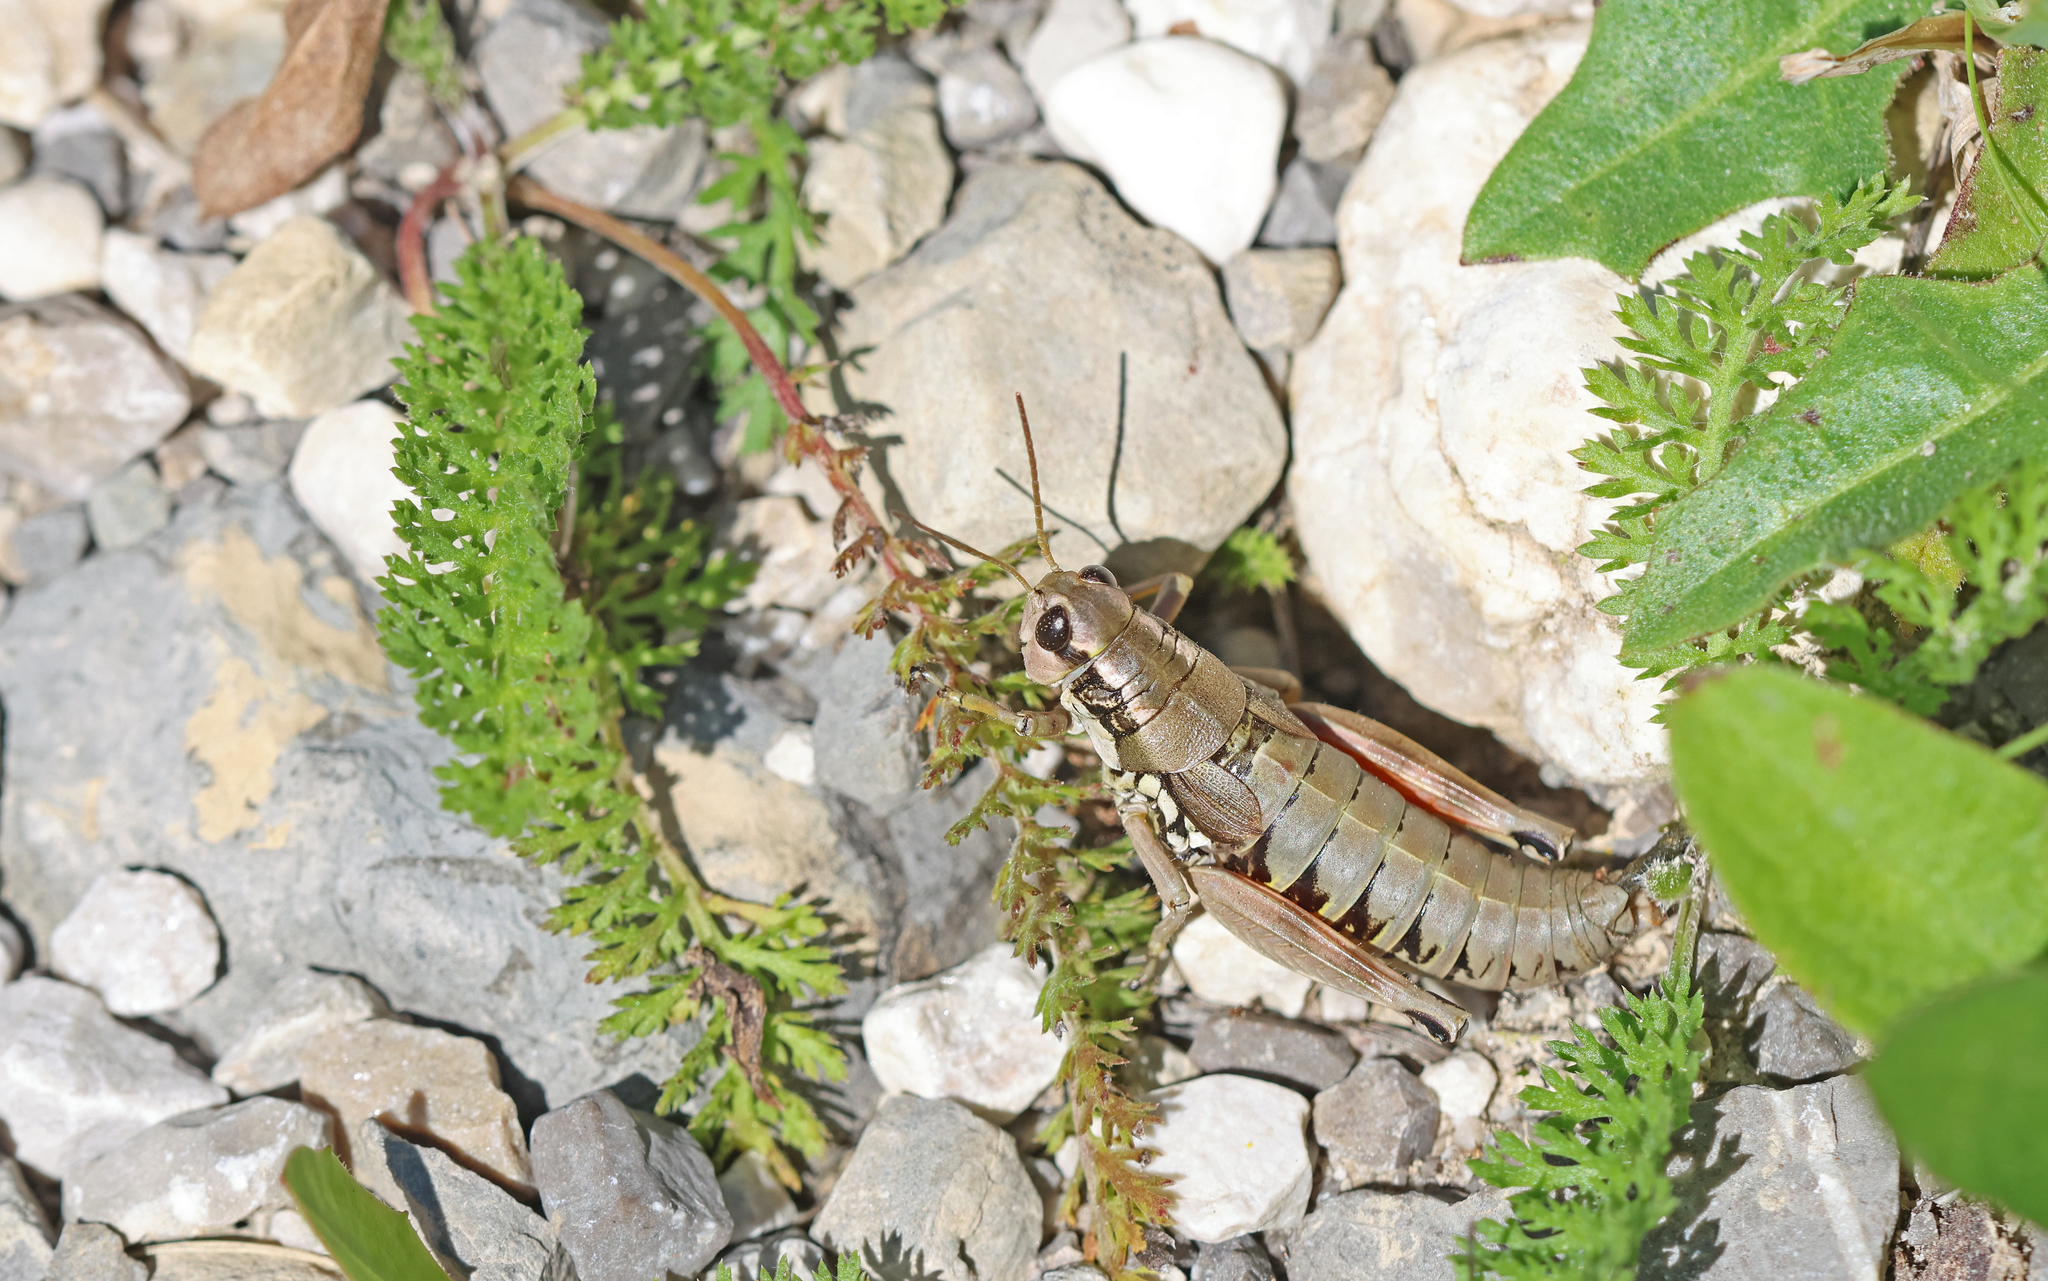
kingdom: Animalia
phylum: Arthropoda
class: Insecta
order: Orthoptera
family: Acrididae
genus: Podisma
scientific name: Podisma pedestris
